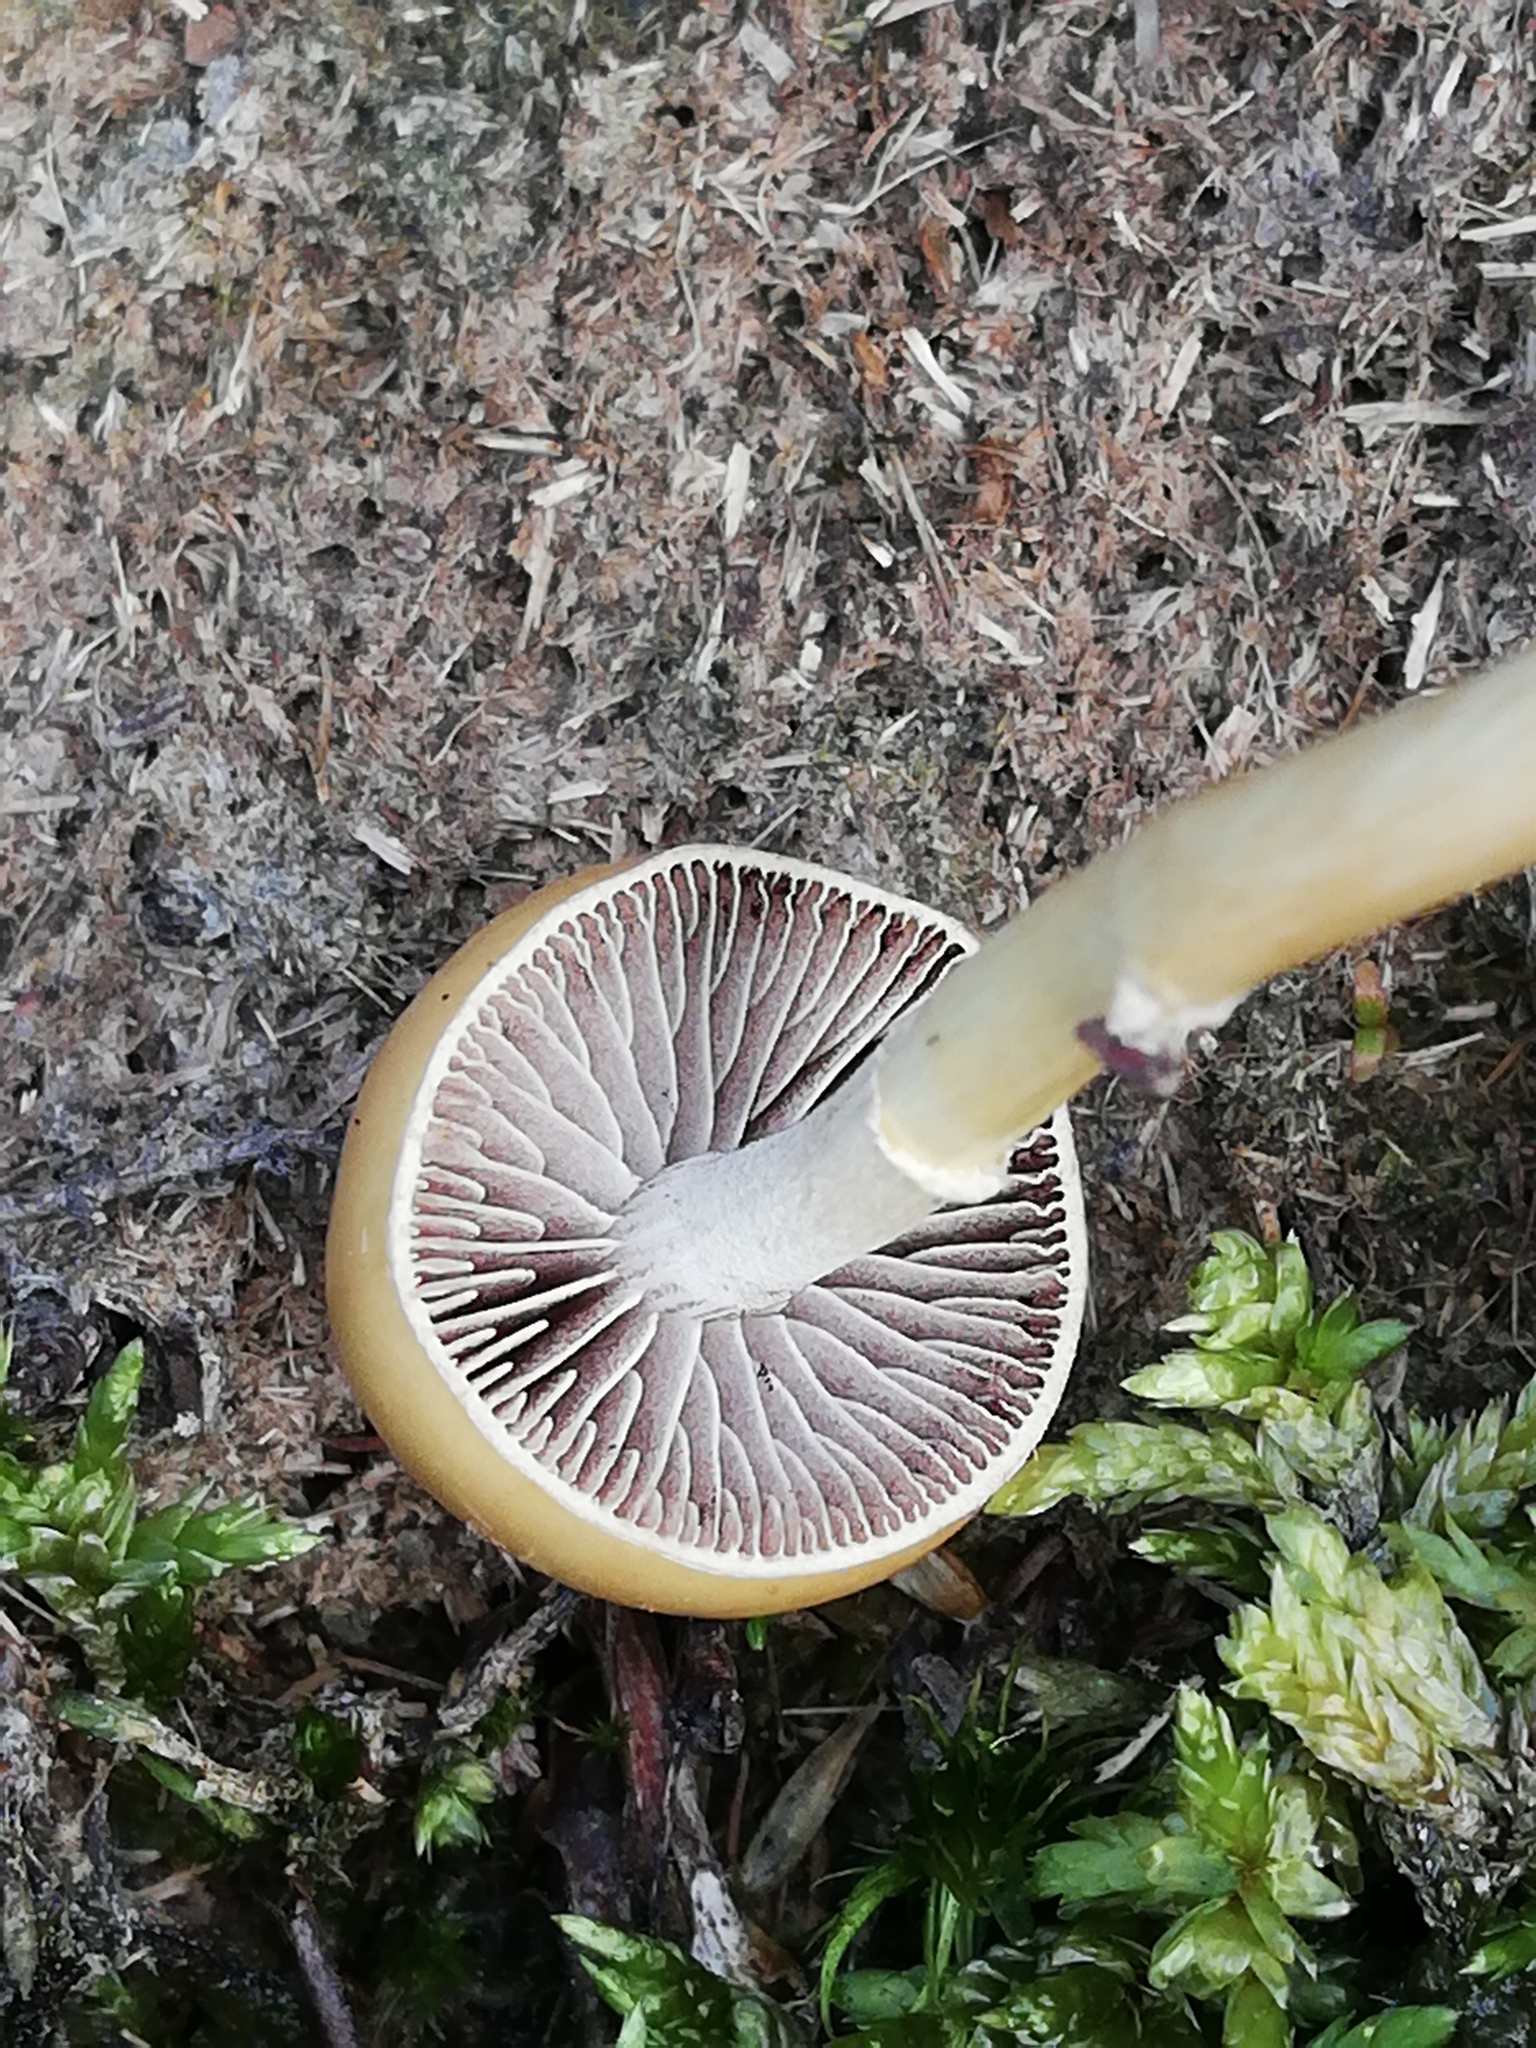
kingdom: Fungi
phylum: Basidiomycota
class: Agaricomycetes
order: Agaricales
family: Strophariaceae
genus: Protostropharia
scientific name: Protostropharia semiglobata
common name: Dung roundhead
